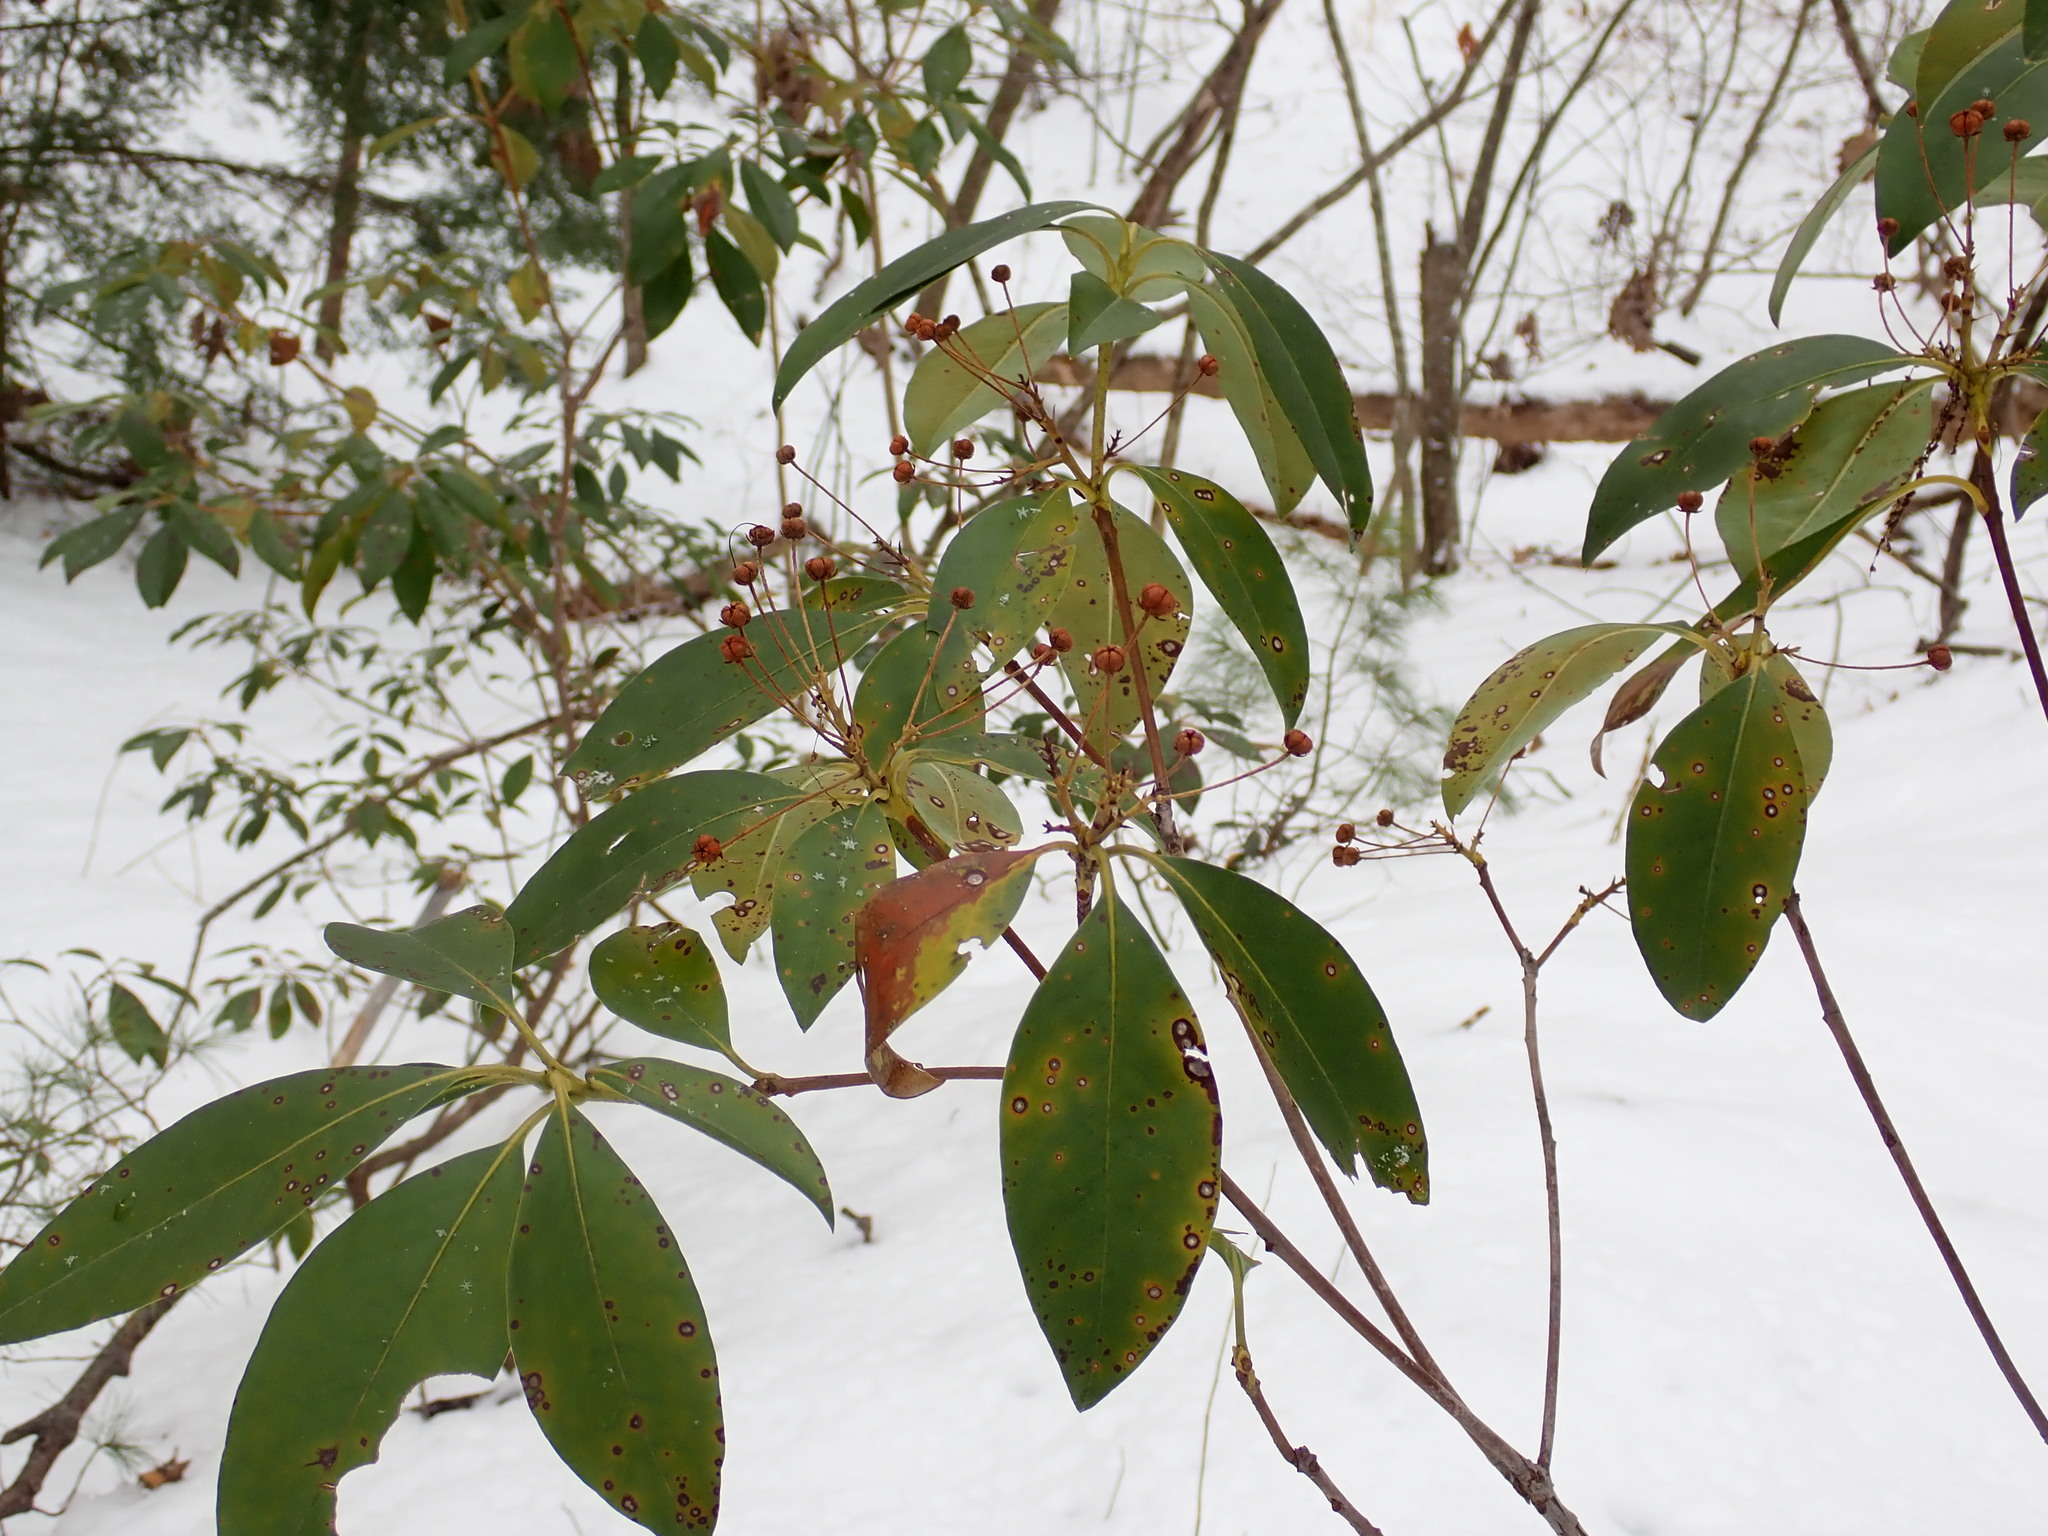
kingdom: Plantae
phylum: Tracheophyta
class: Magnoliopsida
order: Ericales
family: Ericaceae
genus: Kalmia
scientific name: Kalmia latifolia
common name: Mountain-laurel
